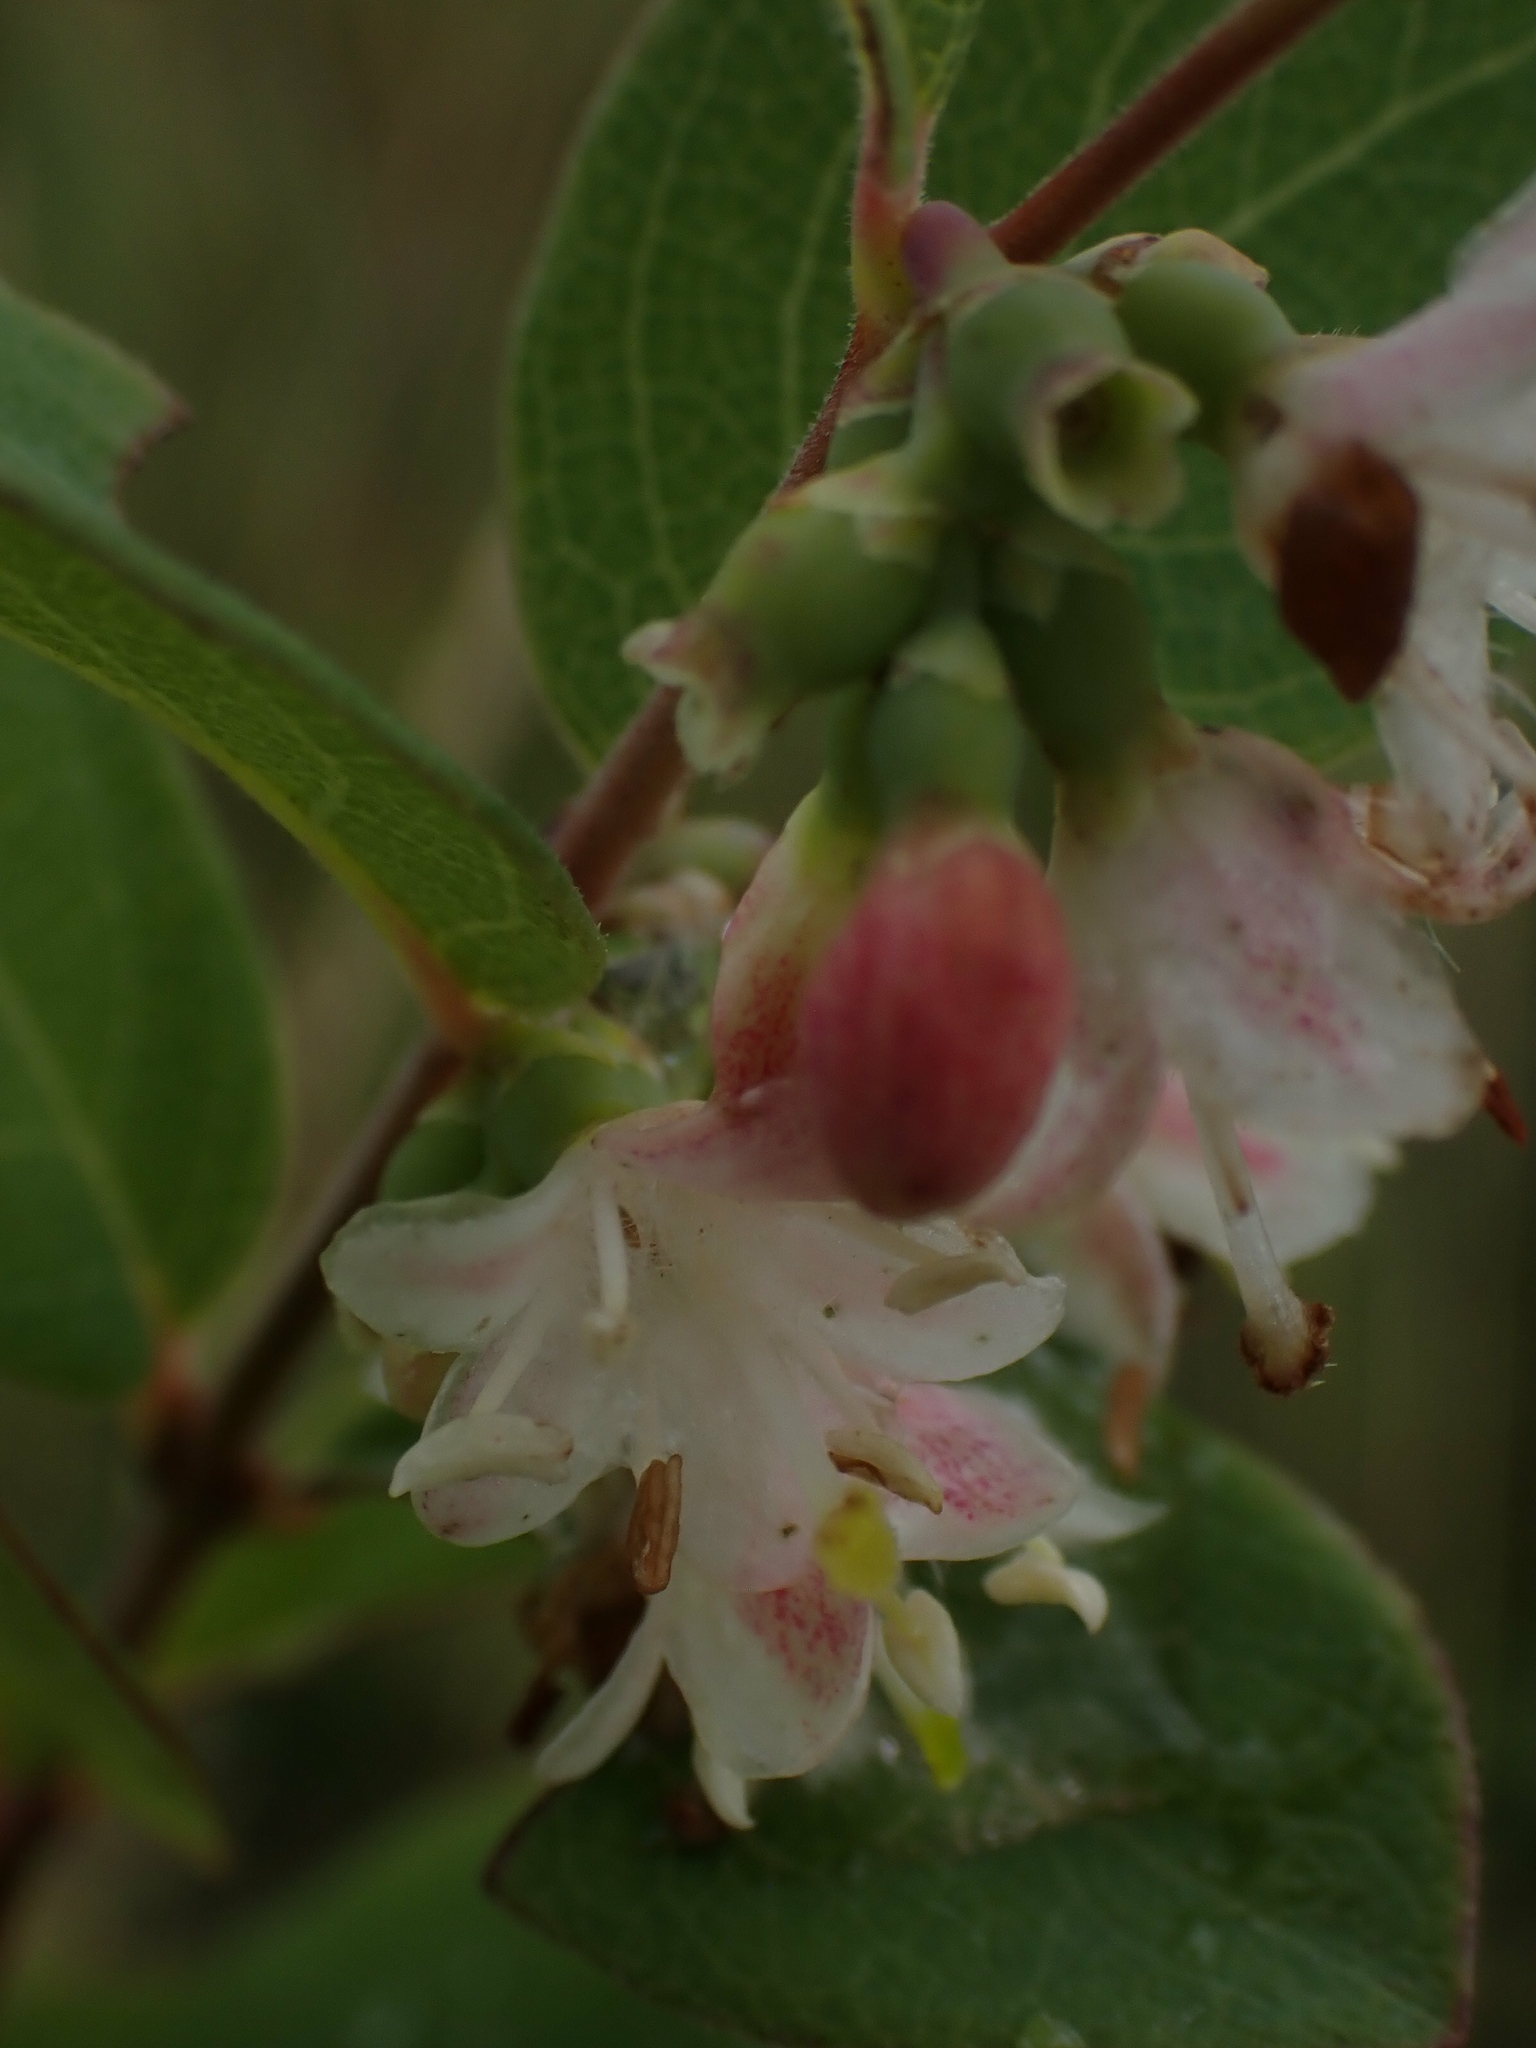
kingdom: Plantae
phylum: Tracheophyta
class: Magnoliopsida
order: Dipsacales
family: Caprifoliaceae
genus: Symphoricarpos
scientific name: Symphoricarpos occidentalis
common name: Wolfberry
